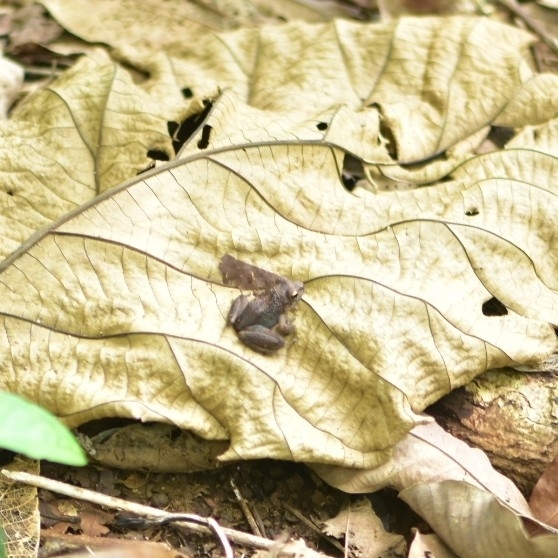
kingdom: Animalia
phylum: Chordata
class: Amphibia
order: Anura
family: Ranixalidae
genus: Indirana
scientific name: Indirana semipalmata
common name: Brown leaping frog
